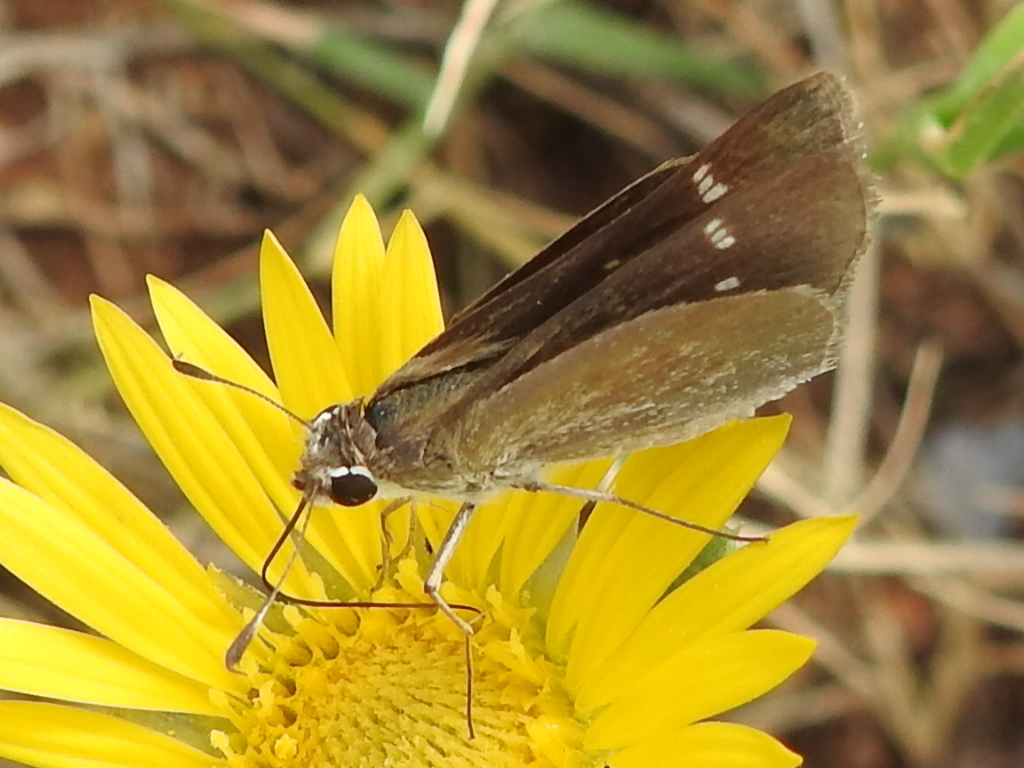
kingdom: Animalia
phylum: Arthropoda
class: Insecta
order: Lepidoptera
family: Hesperiidae
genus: Lerodea
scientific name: Lerodea eufala
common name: Eufala skipper
